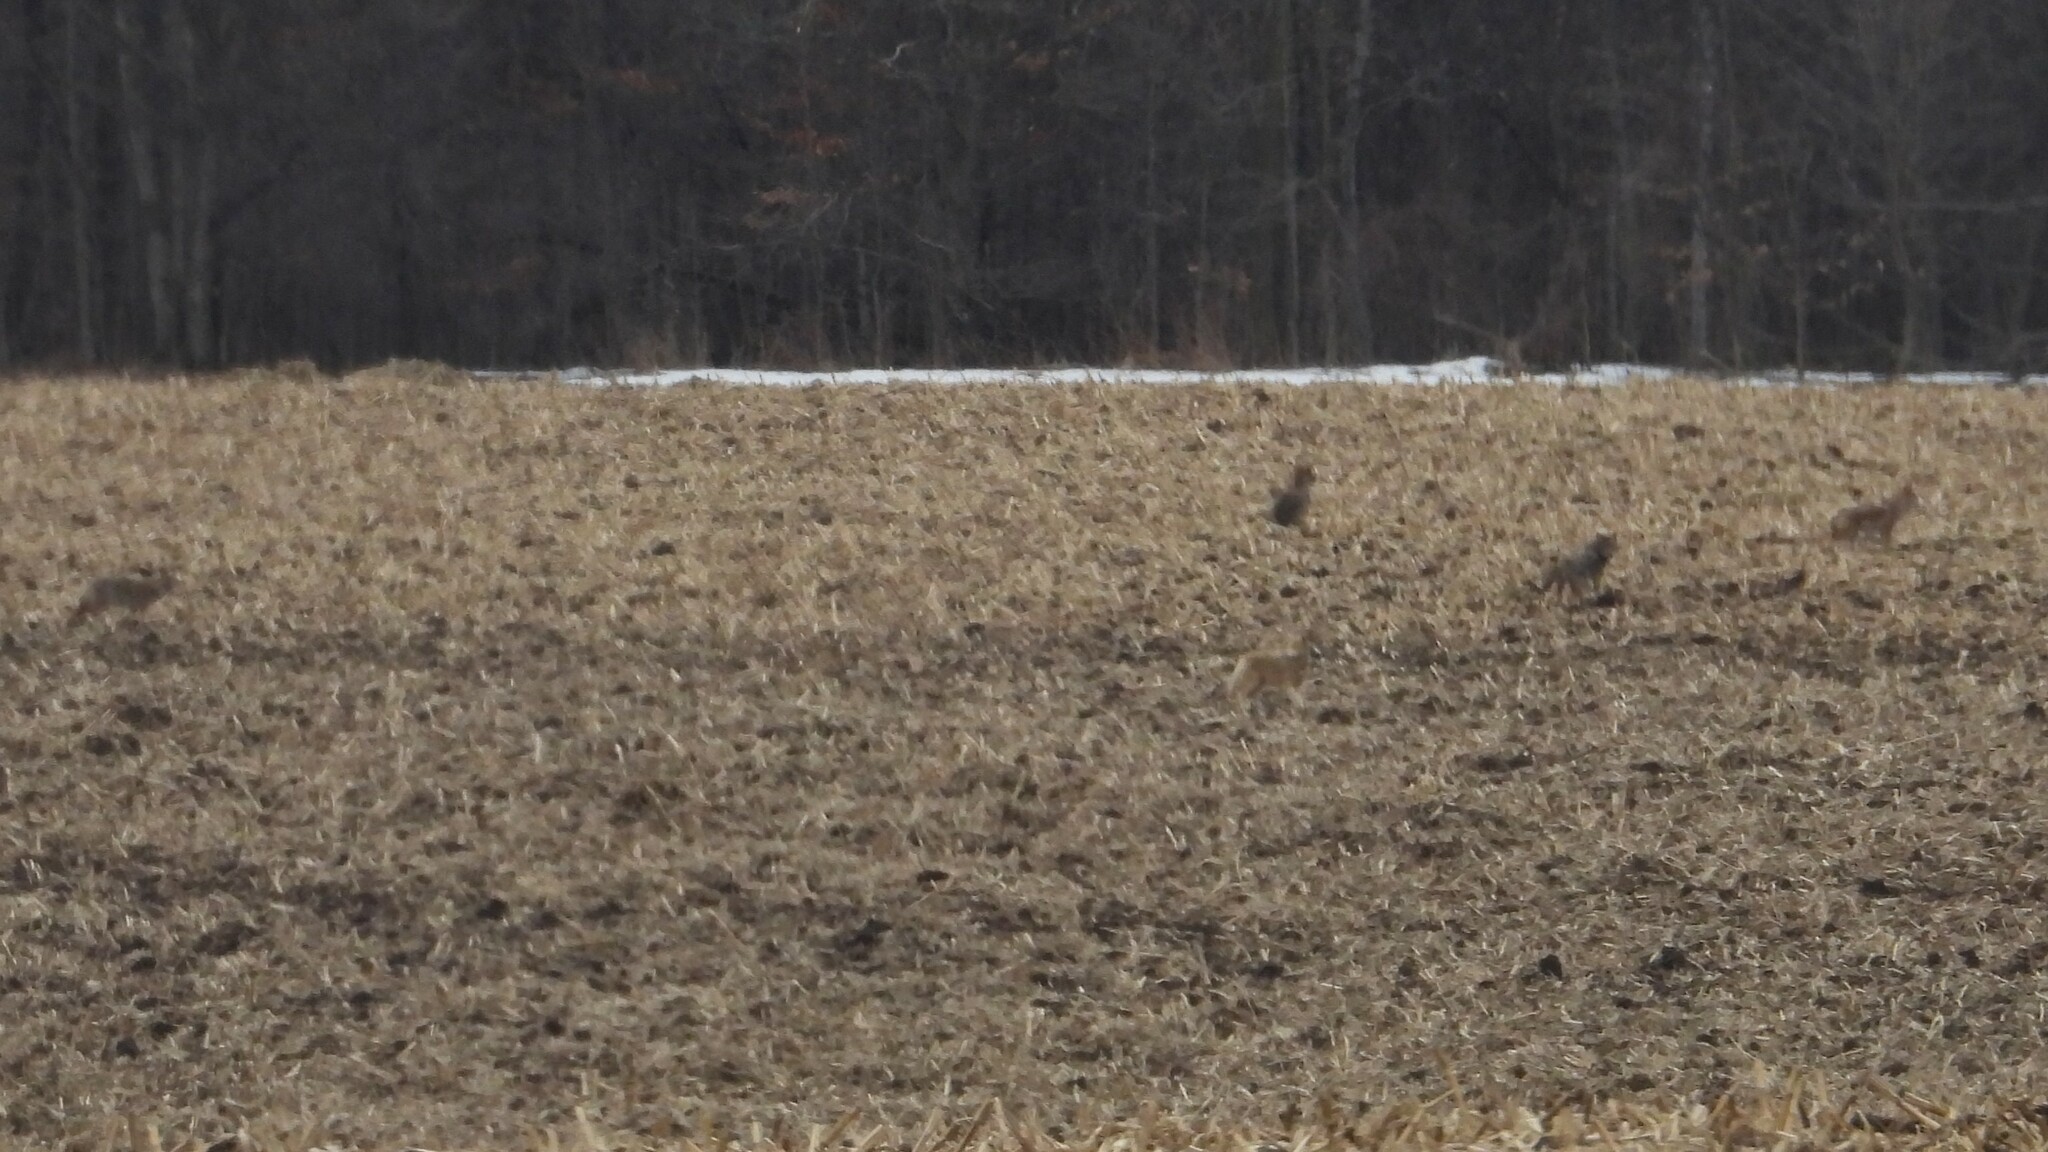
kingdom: Animalia
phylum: Chordata
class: Mammalia
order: Carnivora
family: Canidae
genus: Canis
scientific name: Canis latrans
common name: Coyote
